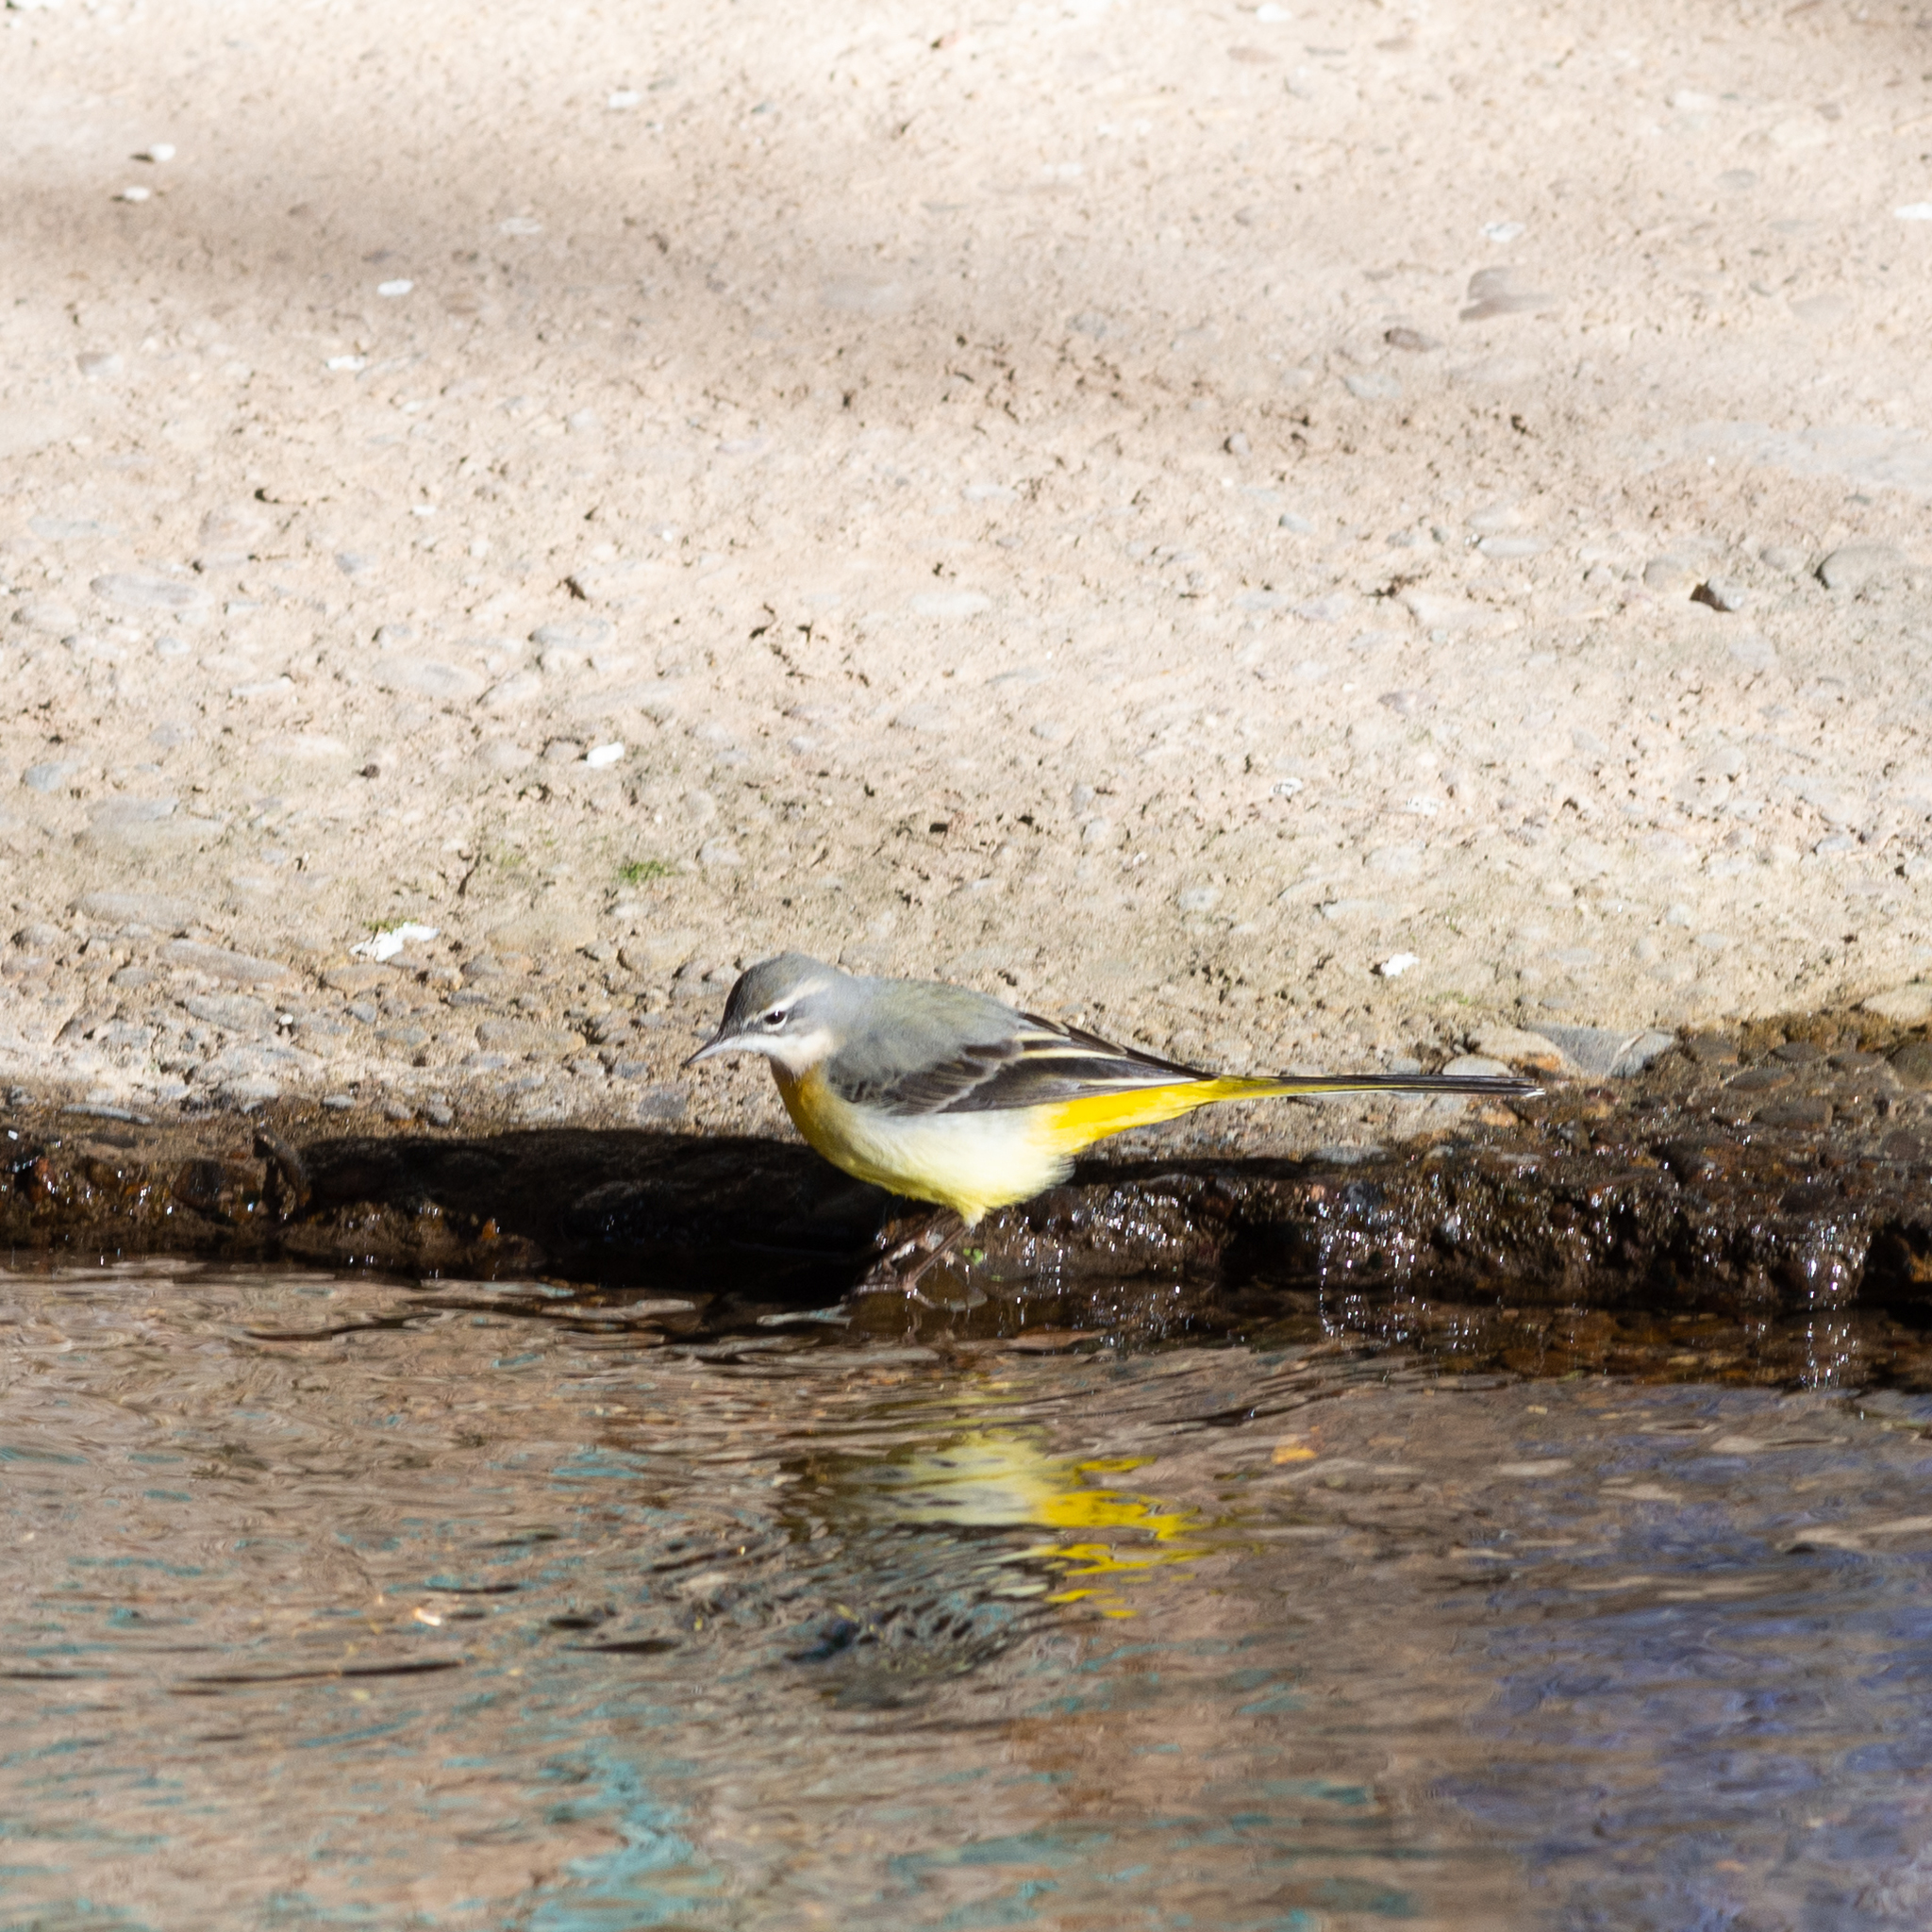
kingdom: Animalia
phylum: Chordata
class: Aves
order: Passeriformes
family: Motacillidae
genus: Motacilla
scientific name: Motacilla cinerea
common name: Grey wagtail
